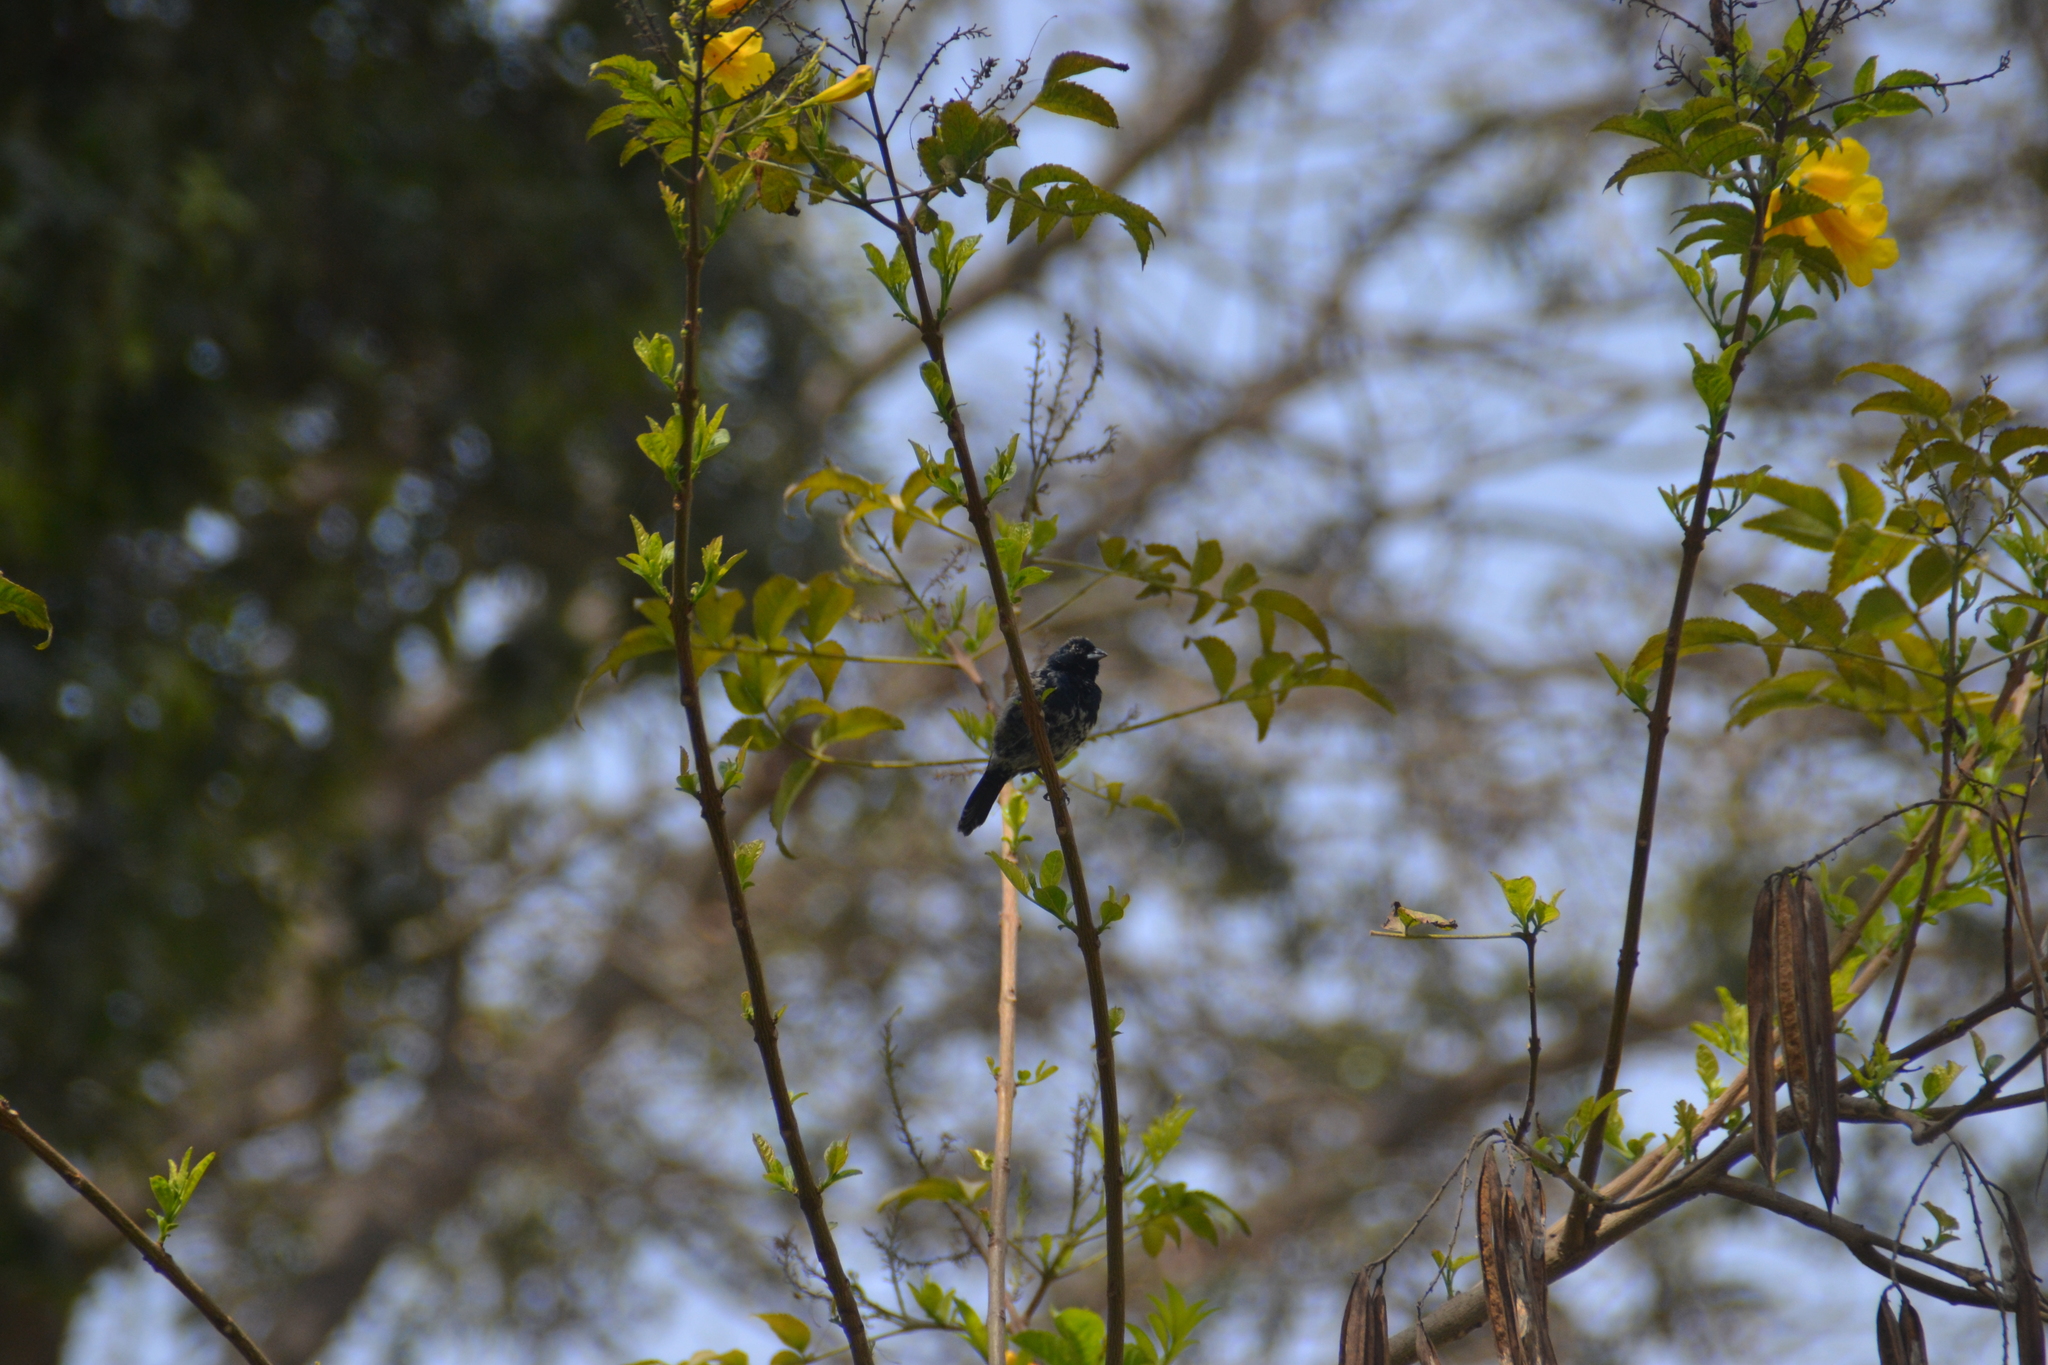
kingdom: Animalia
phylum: Chordata
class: Aves
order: Passeriformes
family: Thraupidae
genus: Volatinia
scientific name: Volatinia jacarina
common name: Blue-black grassquit
